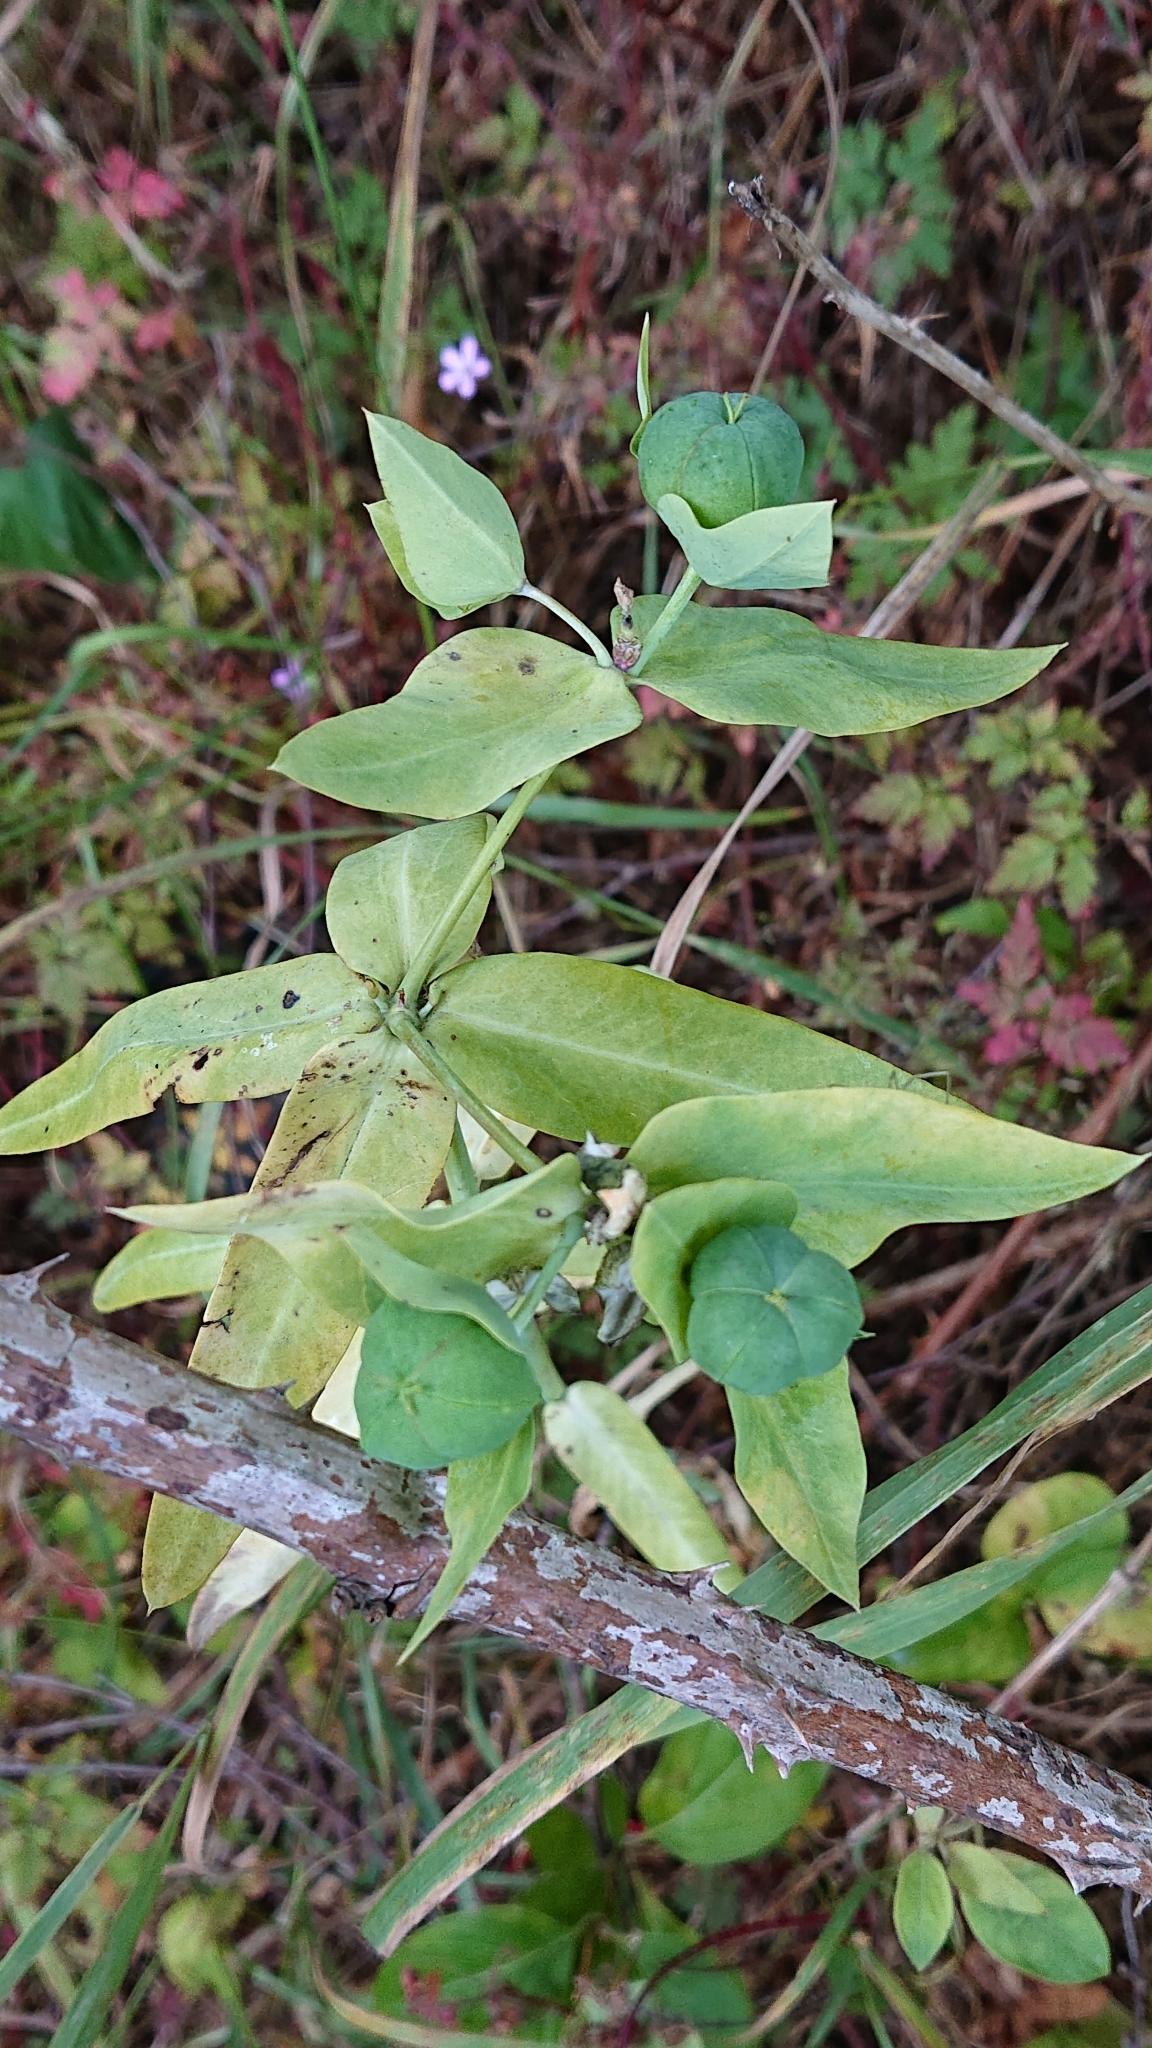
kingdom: Plantae
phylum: Tracheophyta
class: Magnoliopsida
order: Malpighiales
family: Euphorbiaceae
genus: Euphorbia
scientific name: Euphorbia lathyris
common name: Caper spurge
